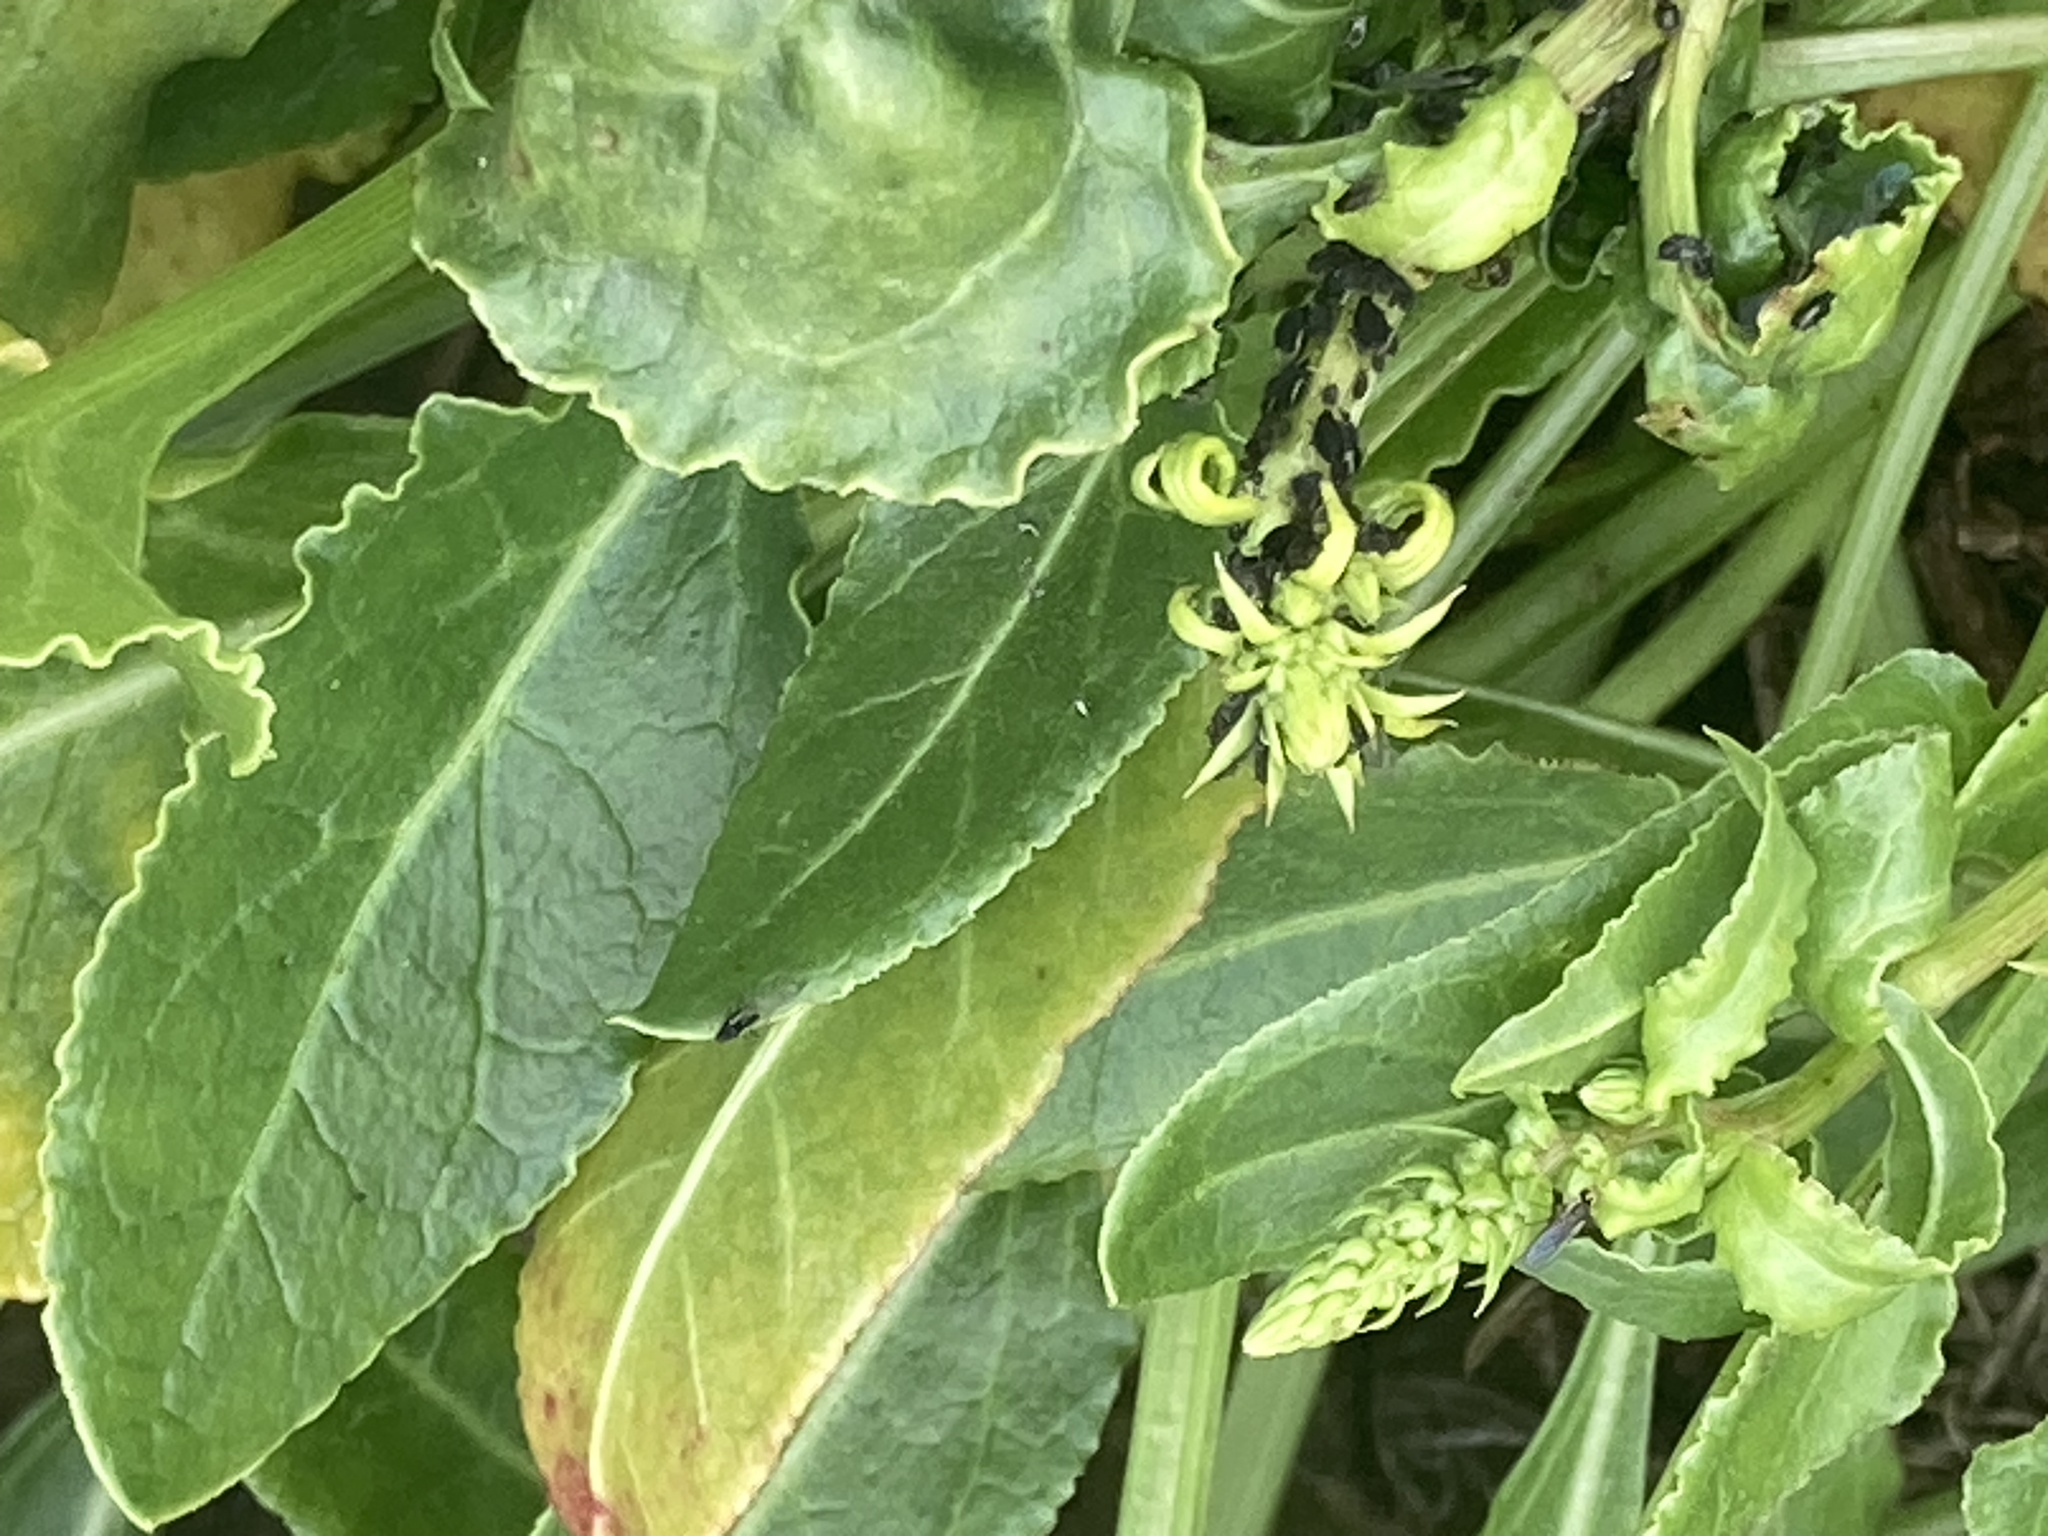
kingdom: Plantae
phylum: Tracheophyta
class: Magnoliopsida
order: Caryophyllales
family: Amaranthaceae
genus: Beta
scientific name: Beta vulgaris
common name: Beet
